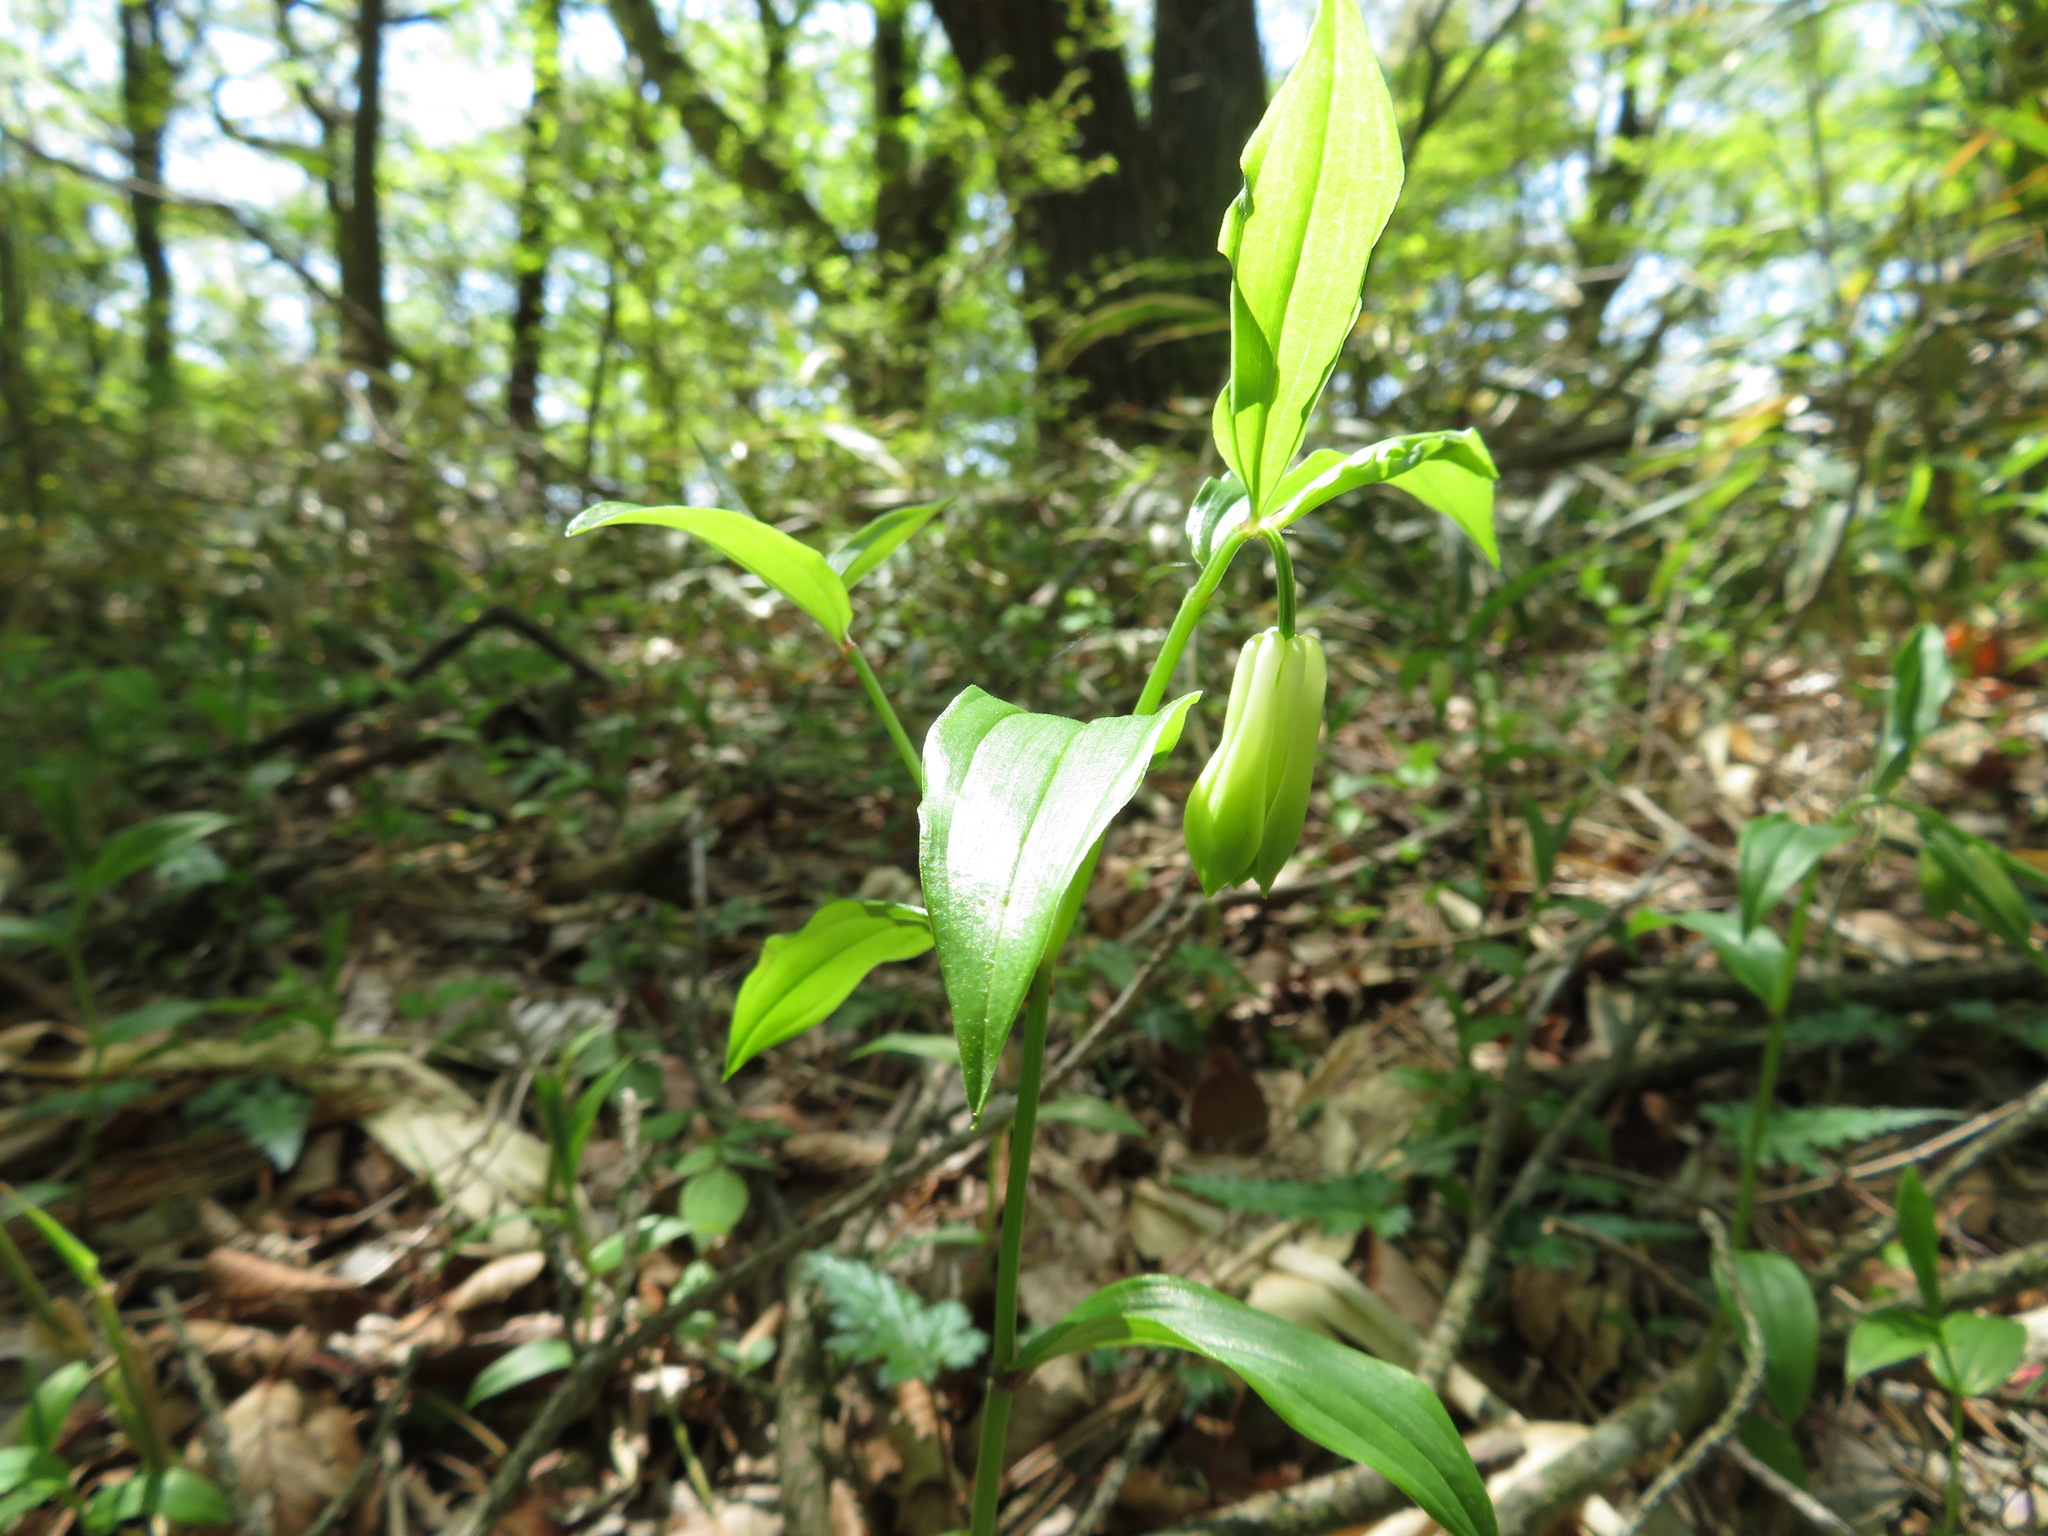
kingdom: Plantae
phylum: Tracheophyta
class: Liliopsida
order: Liliales
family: Colchicaceae
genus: Disporum
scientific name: Disporum sessile
